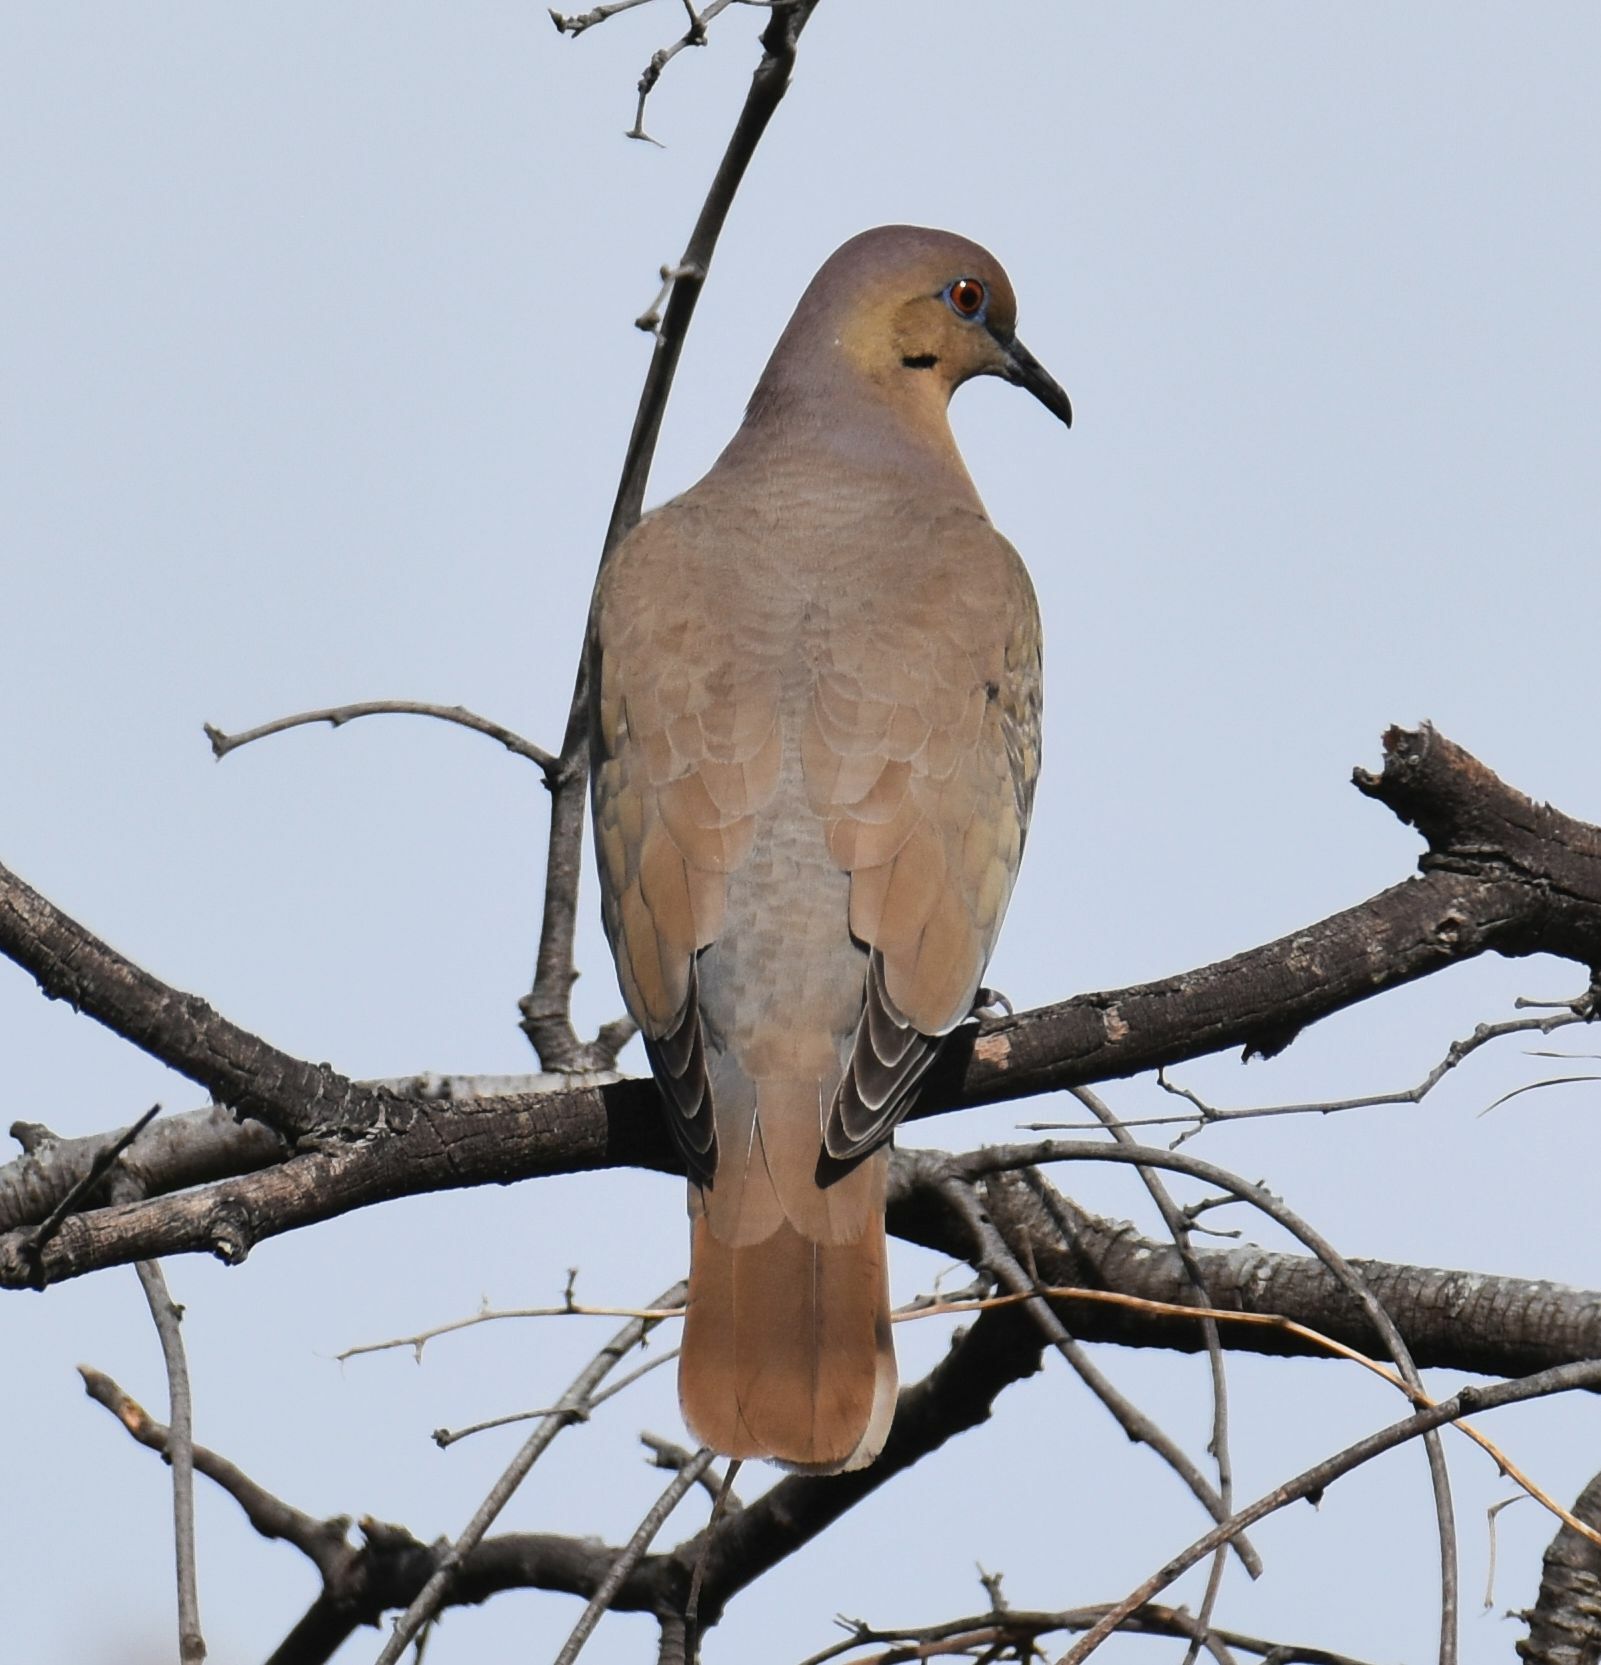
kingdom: Animalia
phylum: Chordata
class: Aves
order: Columbiformes
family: Columbidae
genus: Zenaida
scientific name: Zenaida asiatica
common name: White-winged dove
